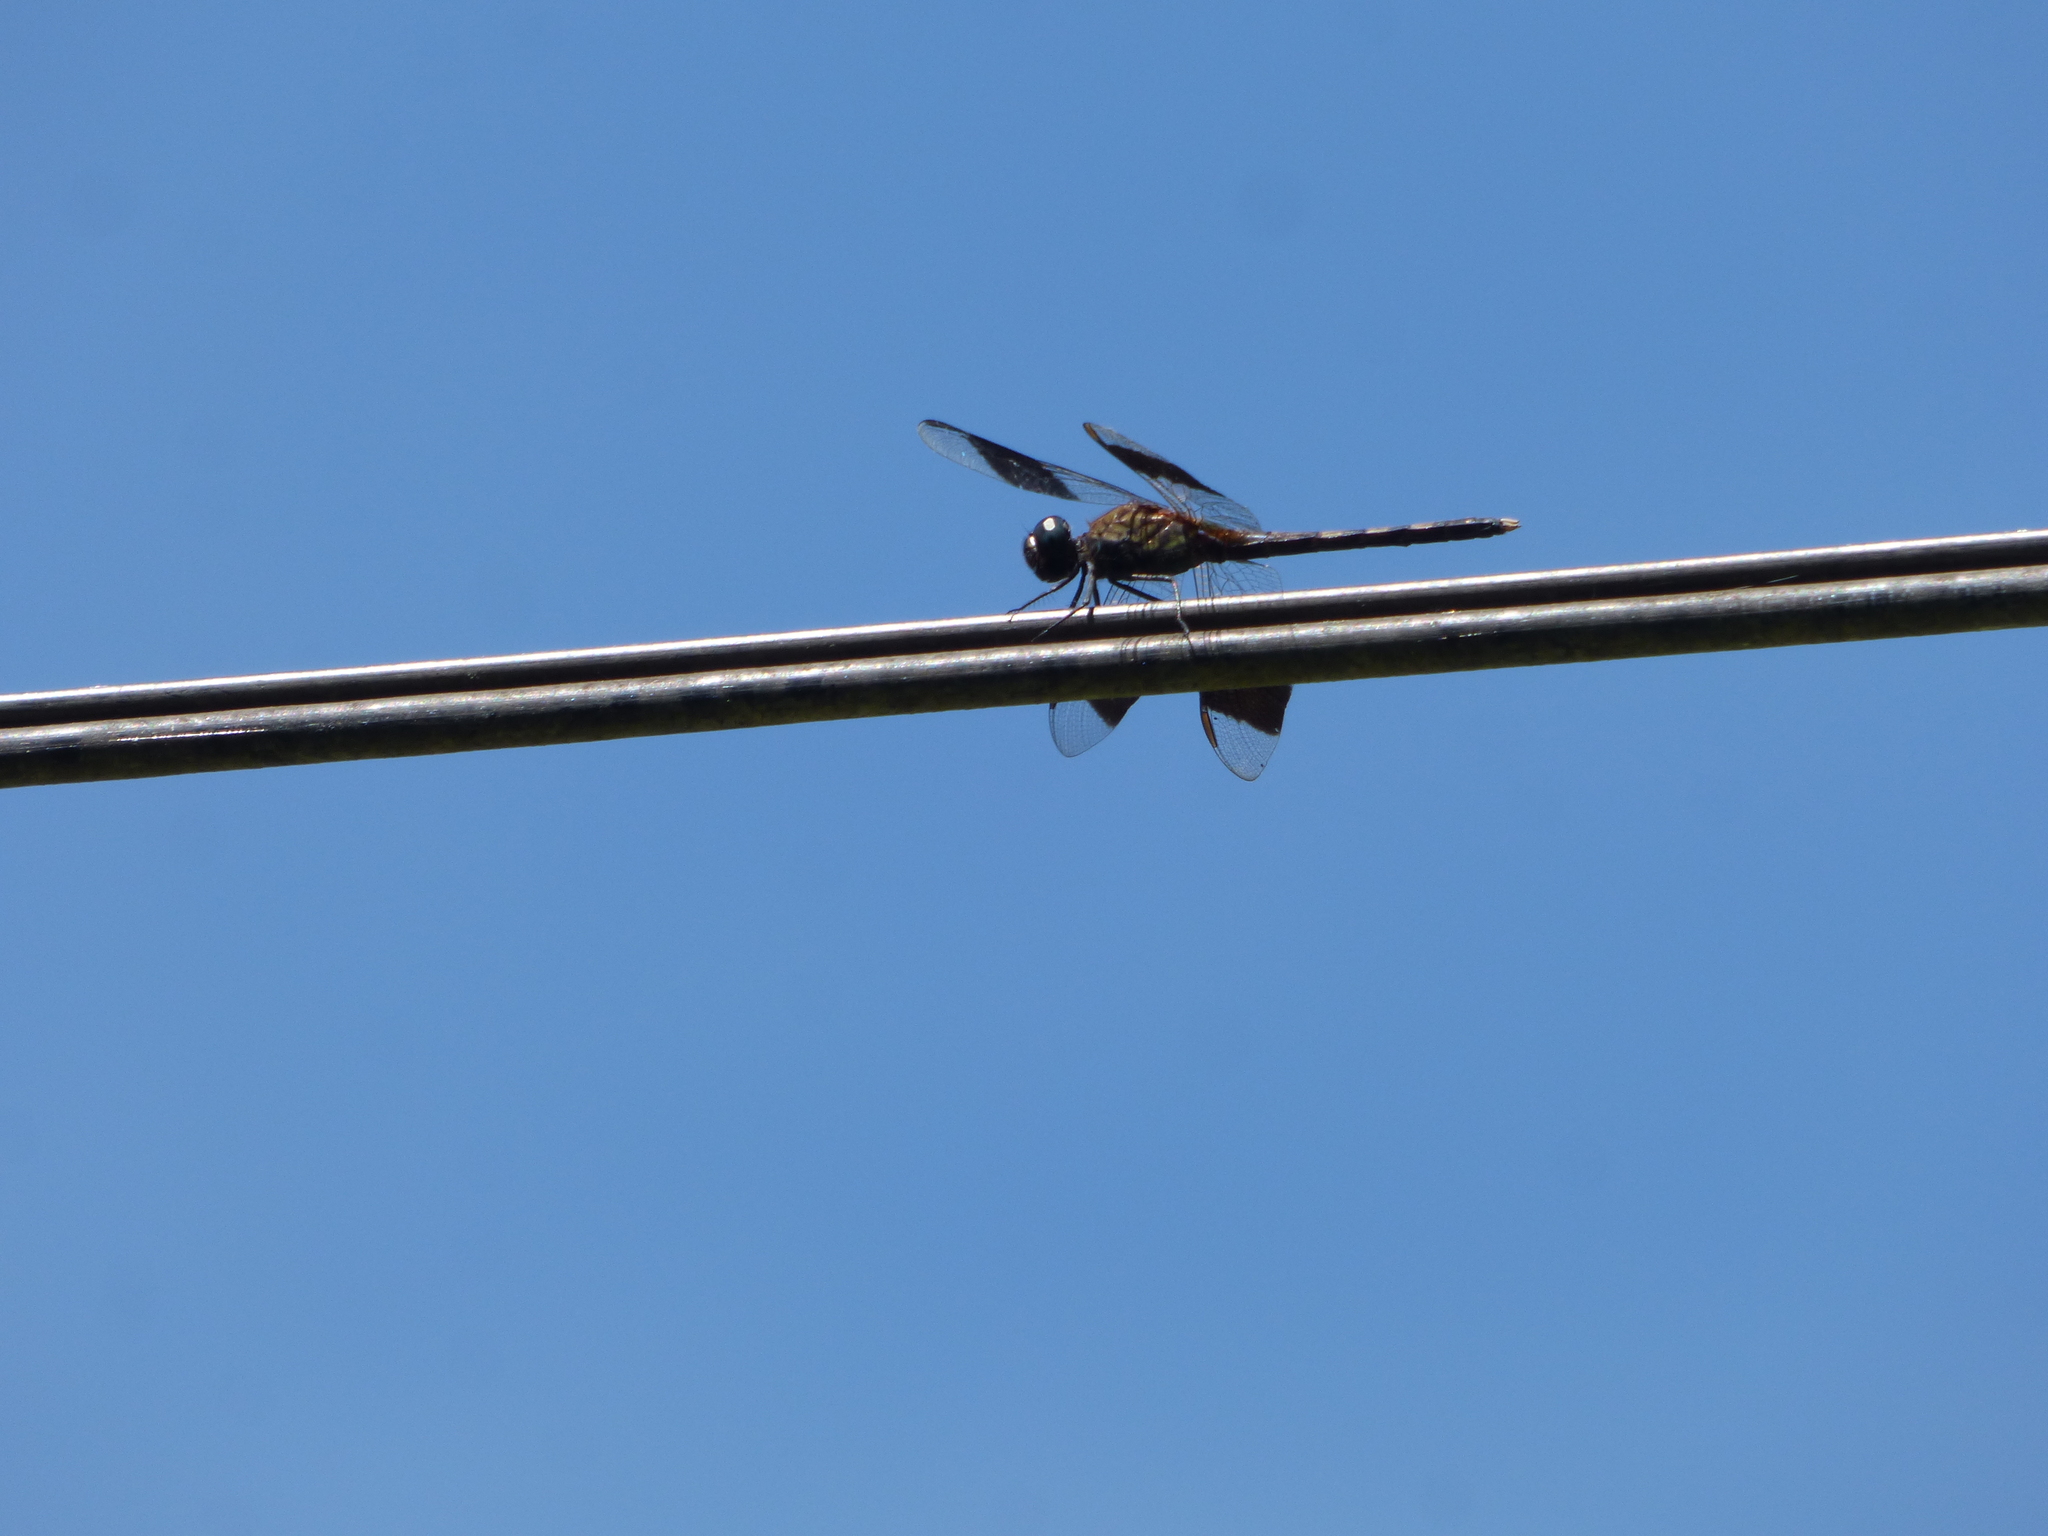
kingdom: Animalia
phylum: Arthropoda
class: Insecta
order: Odonata
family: Libellulidae
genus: Erythrodiplax
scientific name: Erythrodiplax umbrata
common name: Band-winged dragonlet
